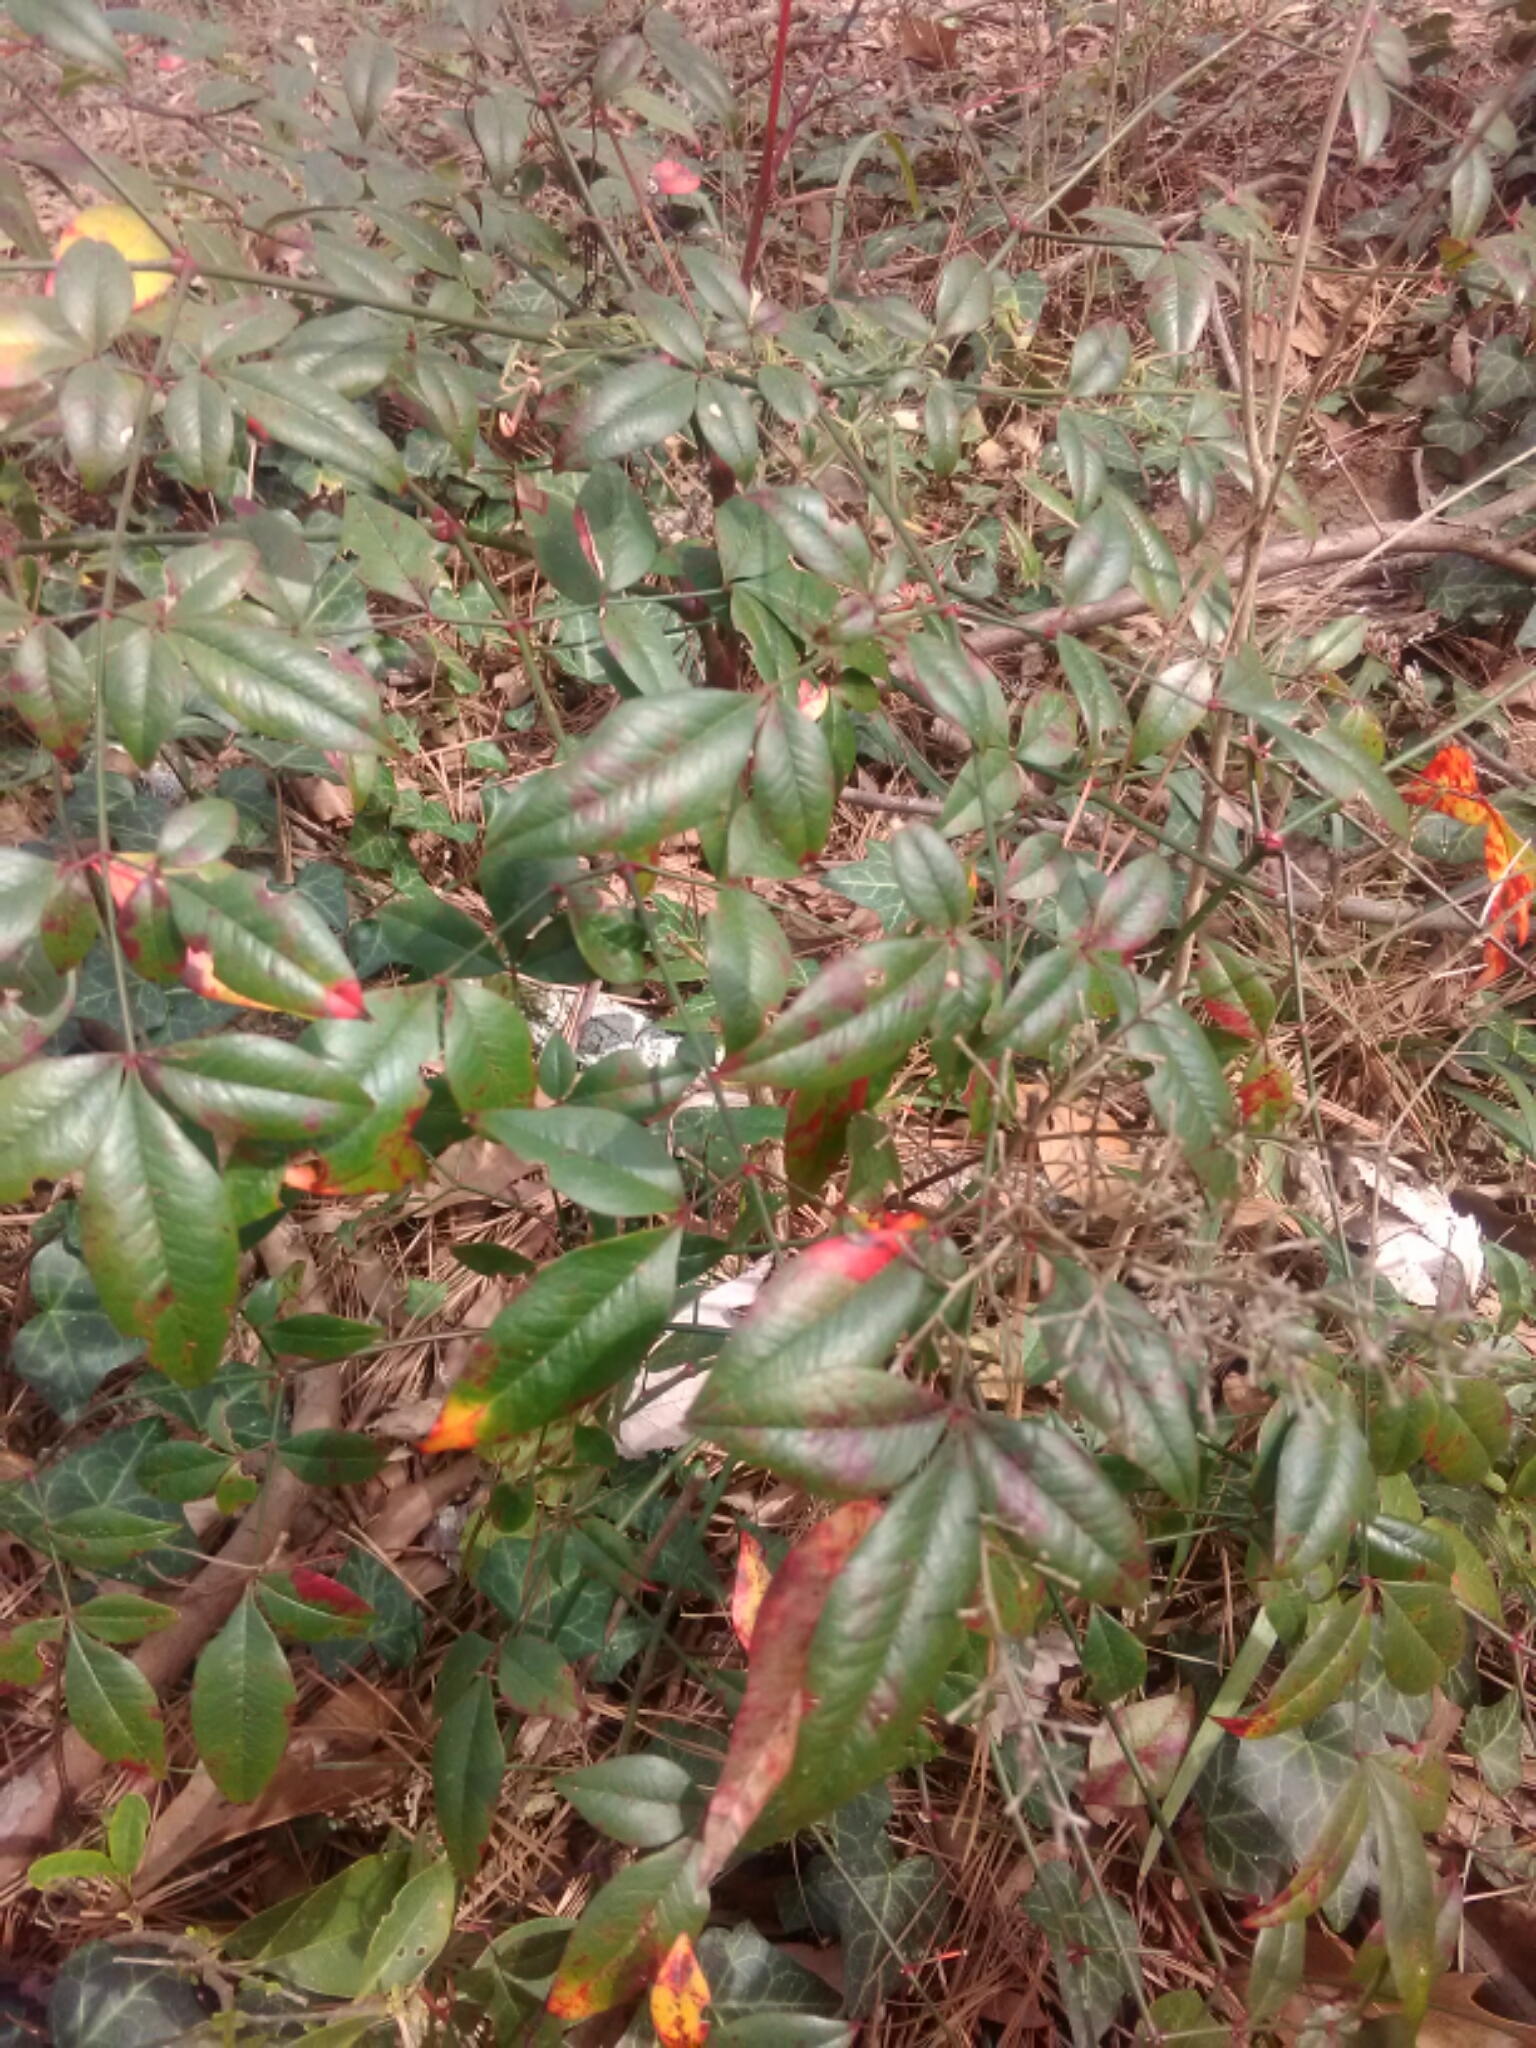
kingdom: Plantae
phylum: Tracheophyta
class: Magnoliopsida
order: Ranunculales
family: Berberidaceae
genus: Nandina
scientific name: Nandina domestica
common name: Sacred bamboo
